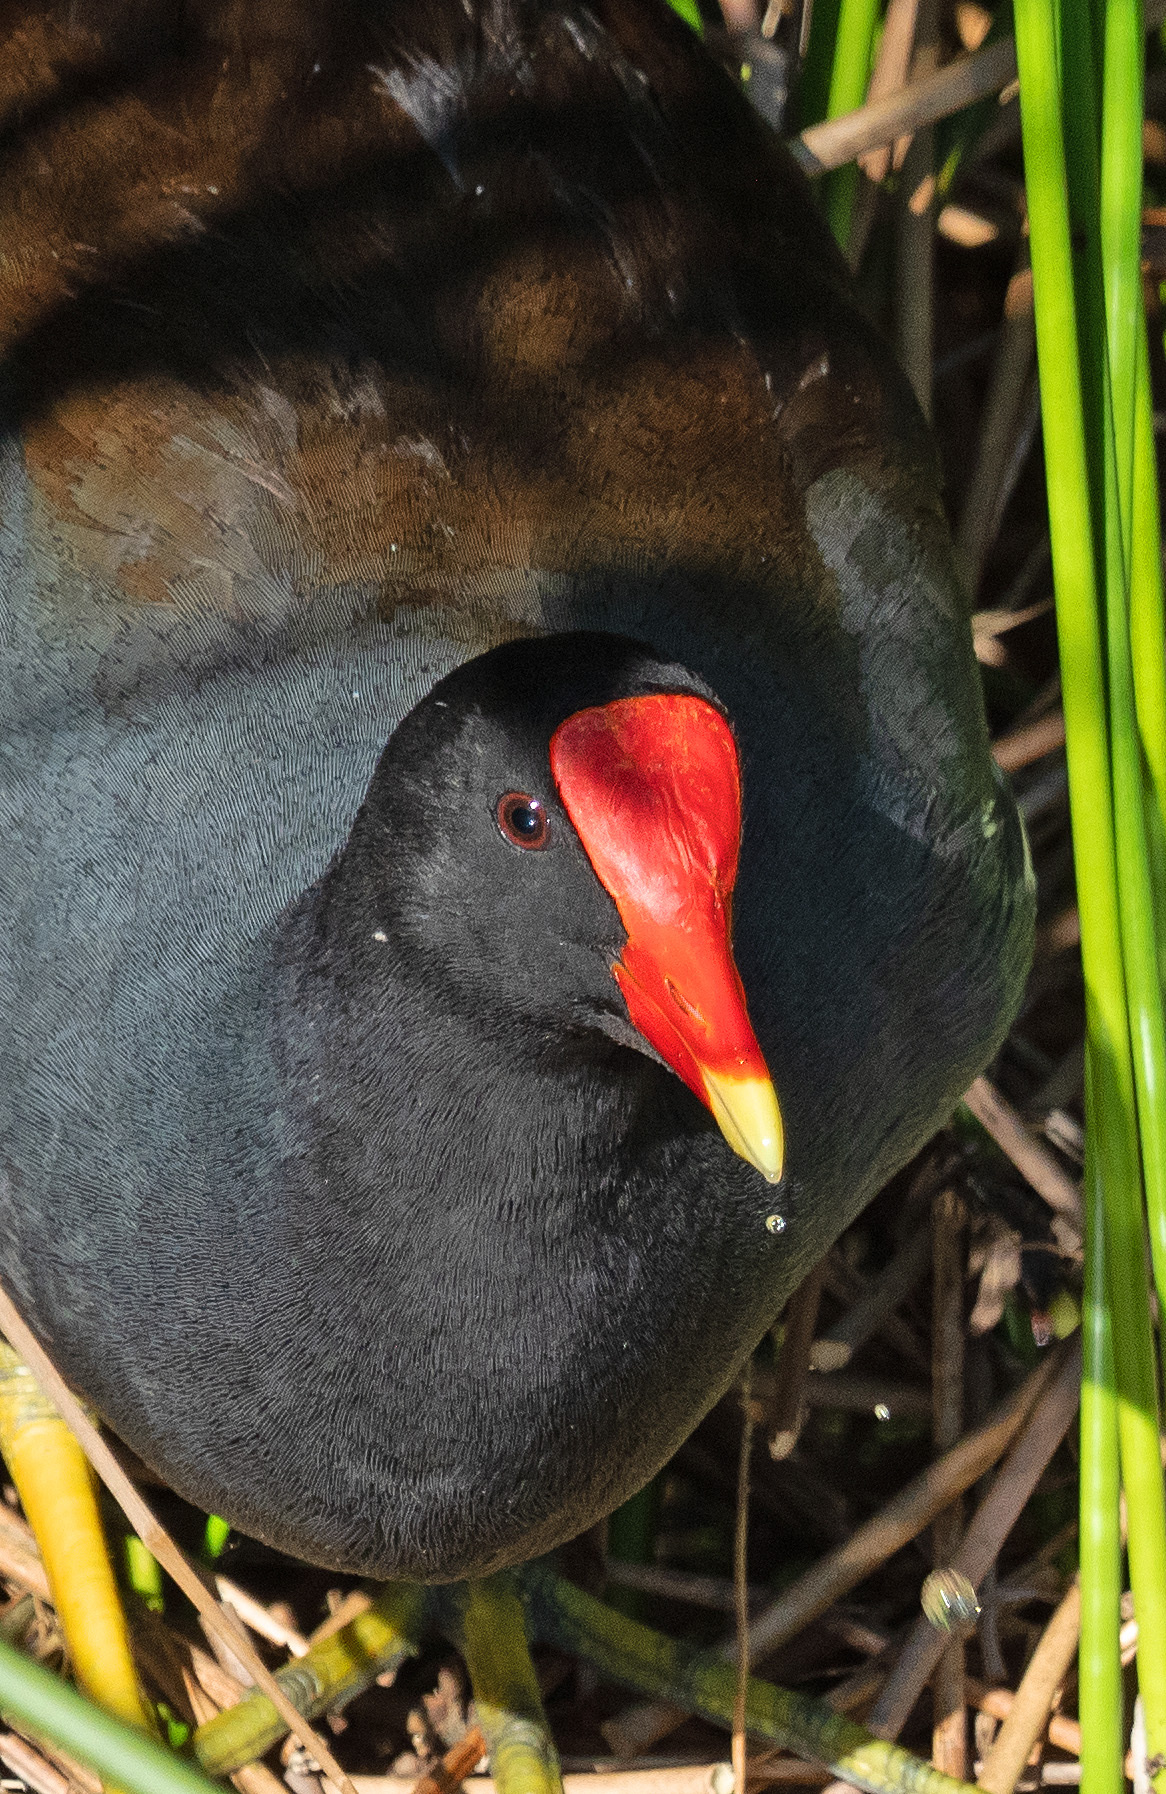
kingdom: Animalia
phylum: Chordata
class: Aves
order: Gruiformes
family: Rallidae
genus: Gallinula
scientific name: Gallinula chloropus
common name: Common moorhen
